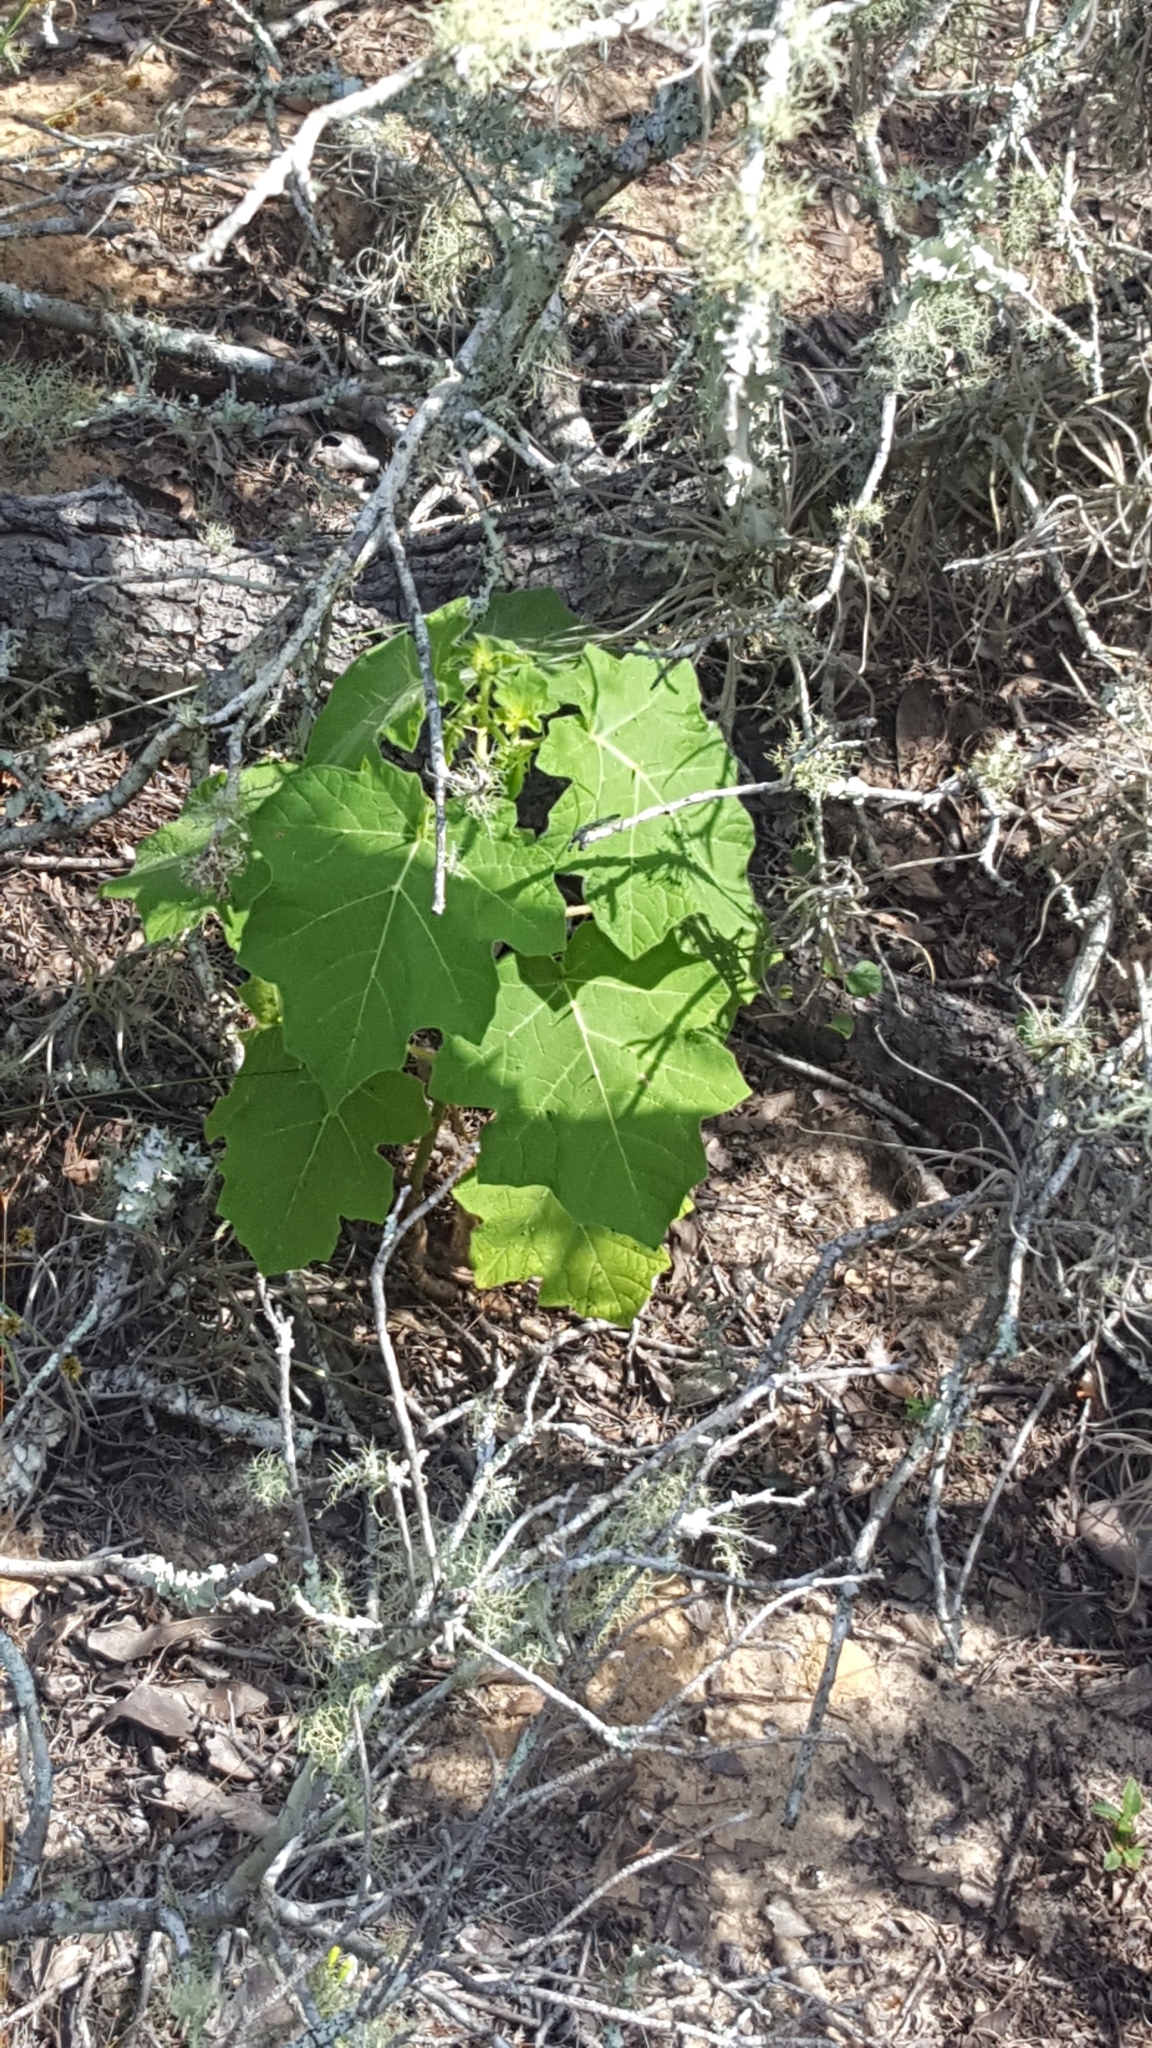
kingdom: Plantae
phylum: Tracheophyta
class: Magnoliopsida
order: Solanales
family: Solanaceae
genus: Solanum
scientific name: Solanum viarum
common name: Tropical soda apple
